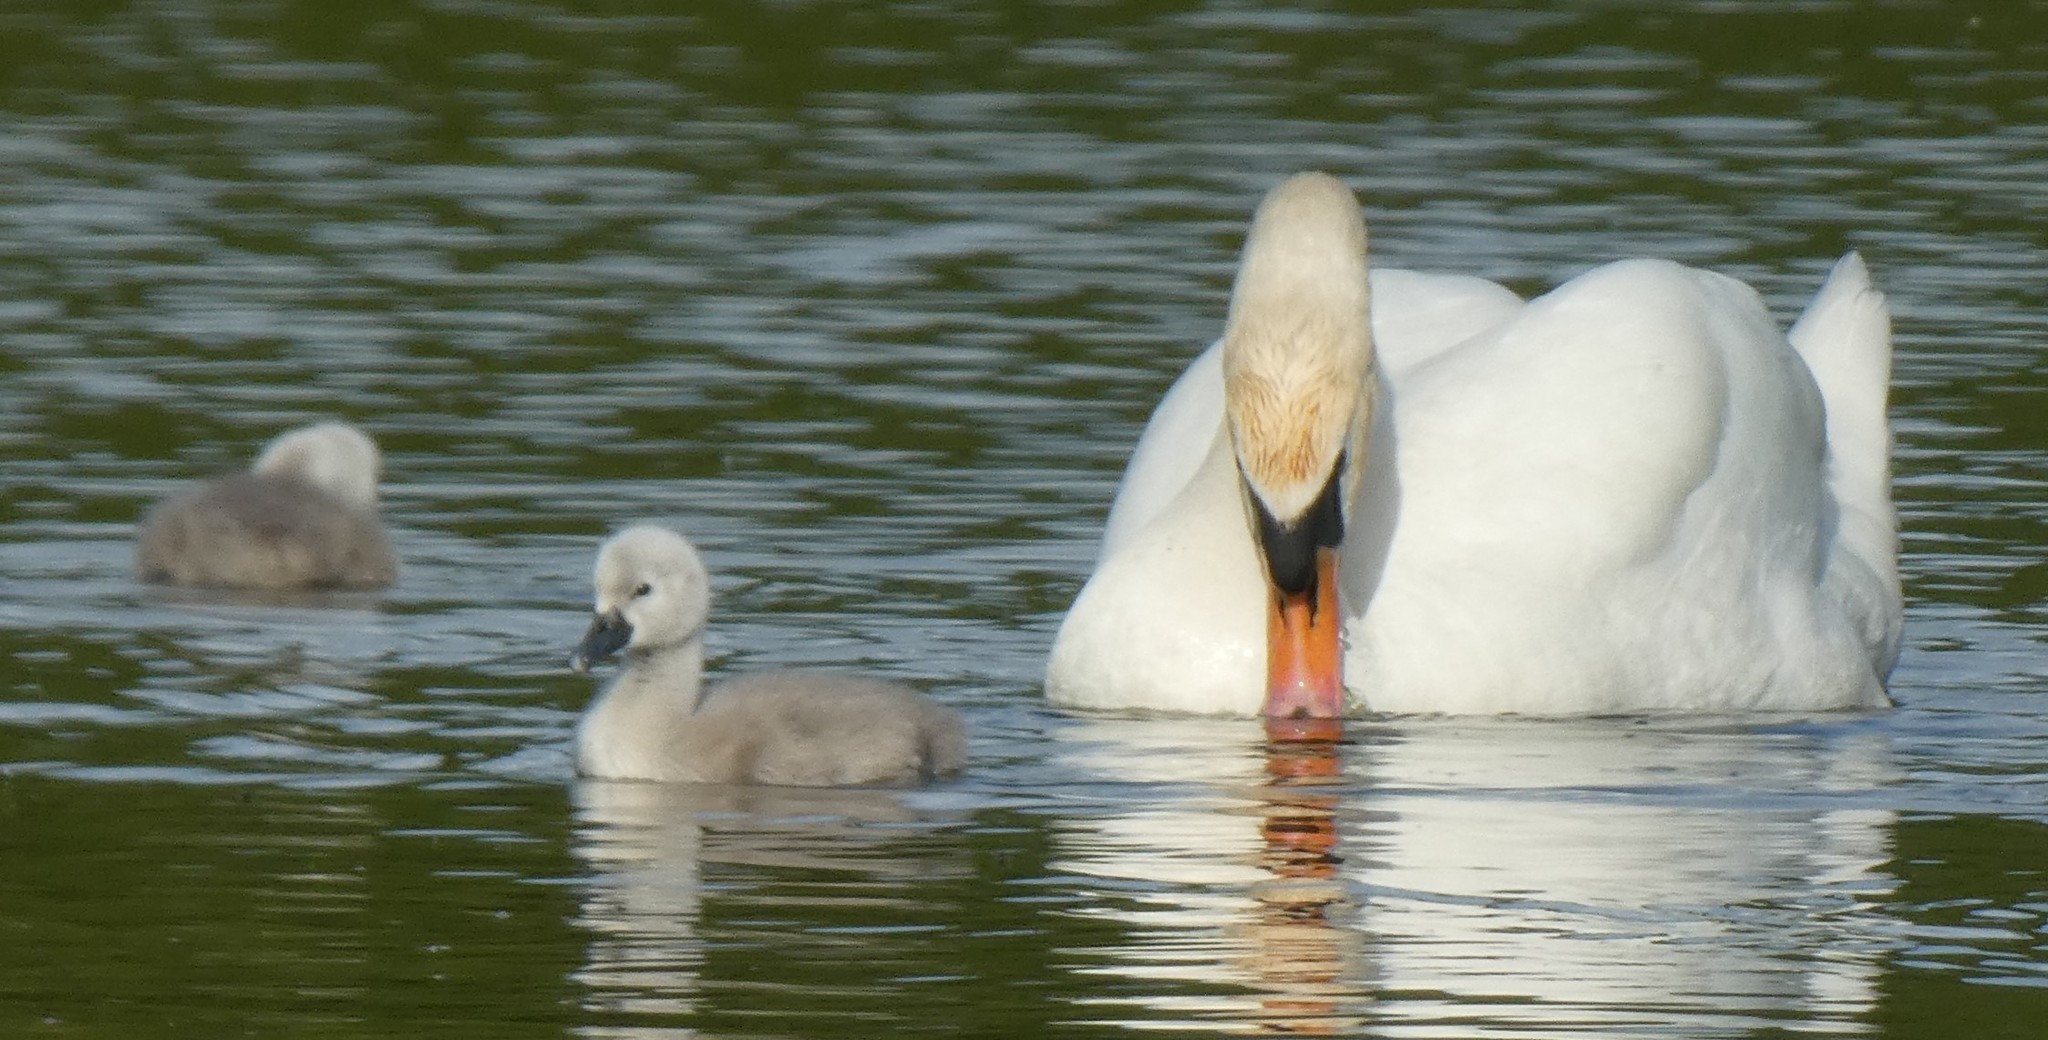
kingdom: Animalia
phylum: Chordata
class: Aves
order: Anseriformes
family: Anatidae
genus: Cygnus
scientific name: Cygnus olor
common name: Mute swan
